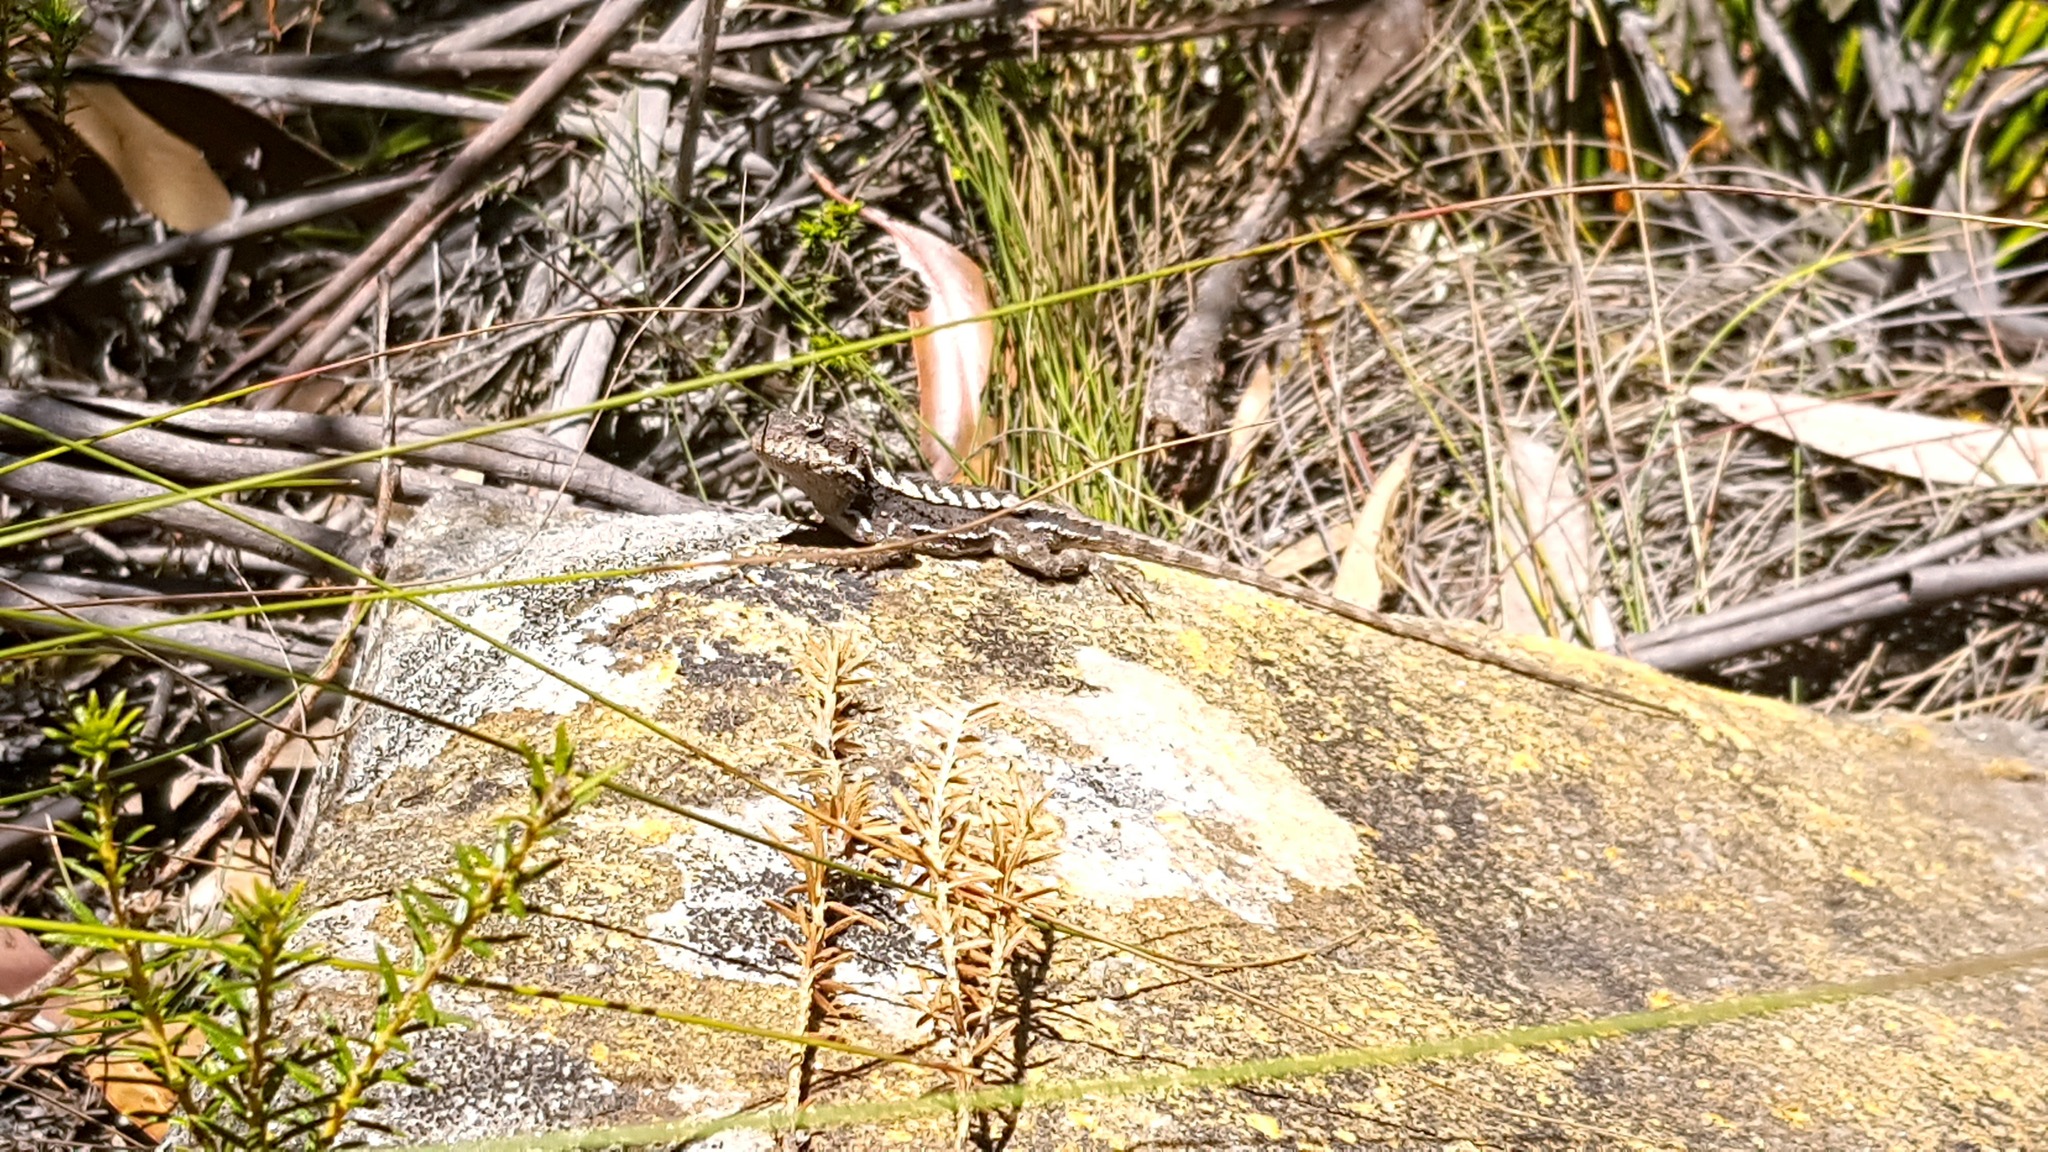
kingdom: Animalia
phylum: Chordata
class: Squamata
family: Agamidae
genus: Rankinia
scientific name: Rankinia diemensis
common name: Mountain dragon
